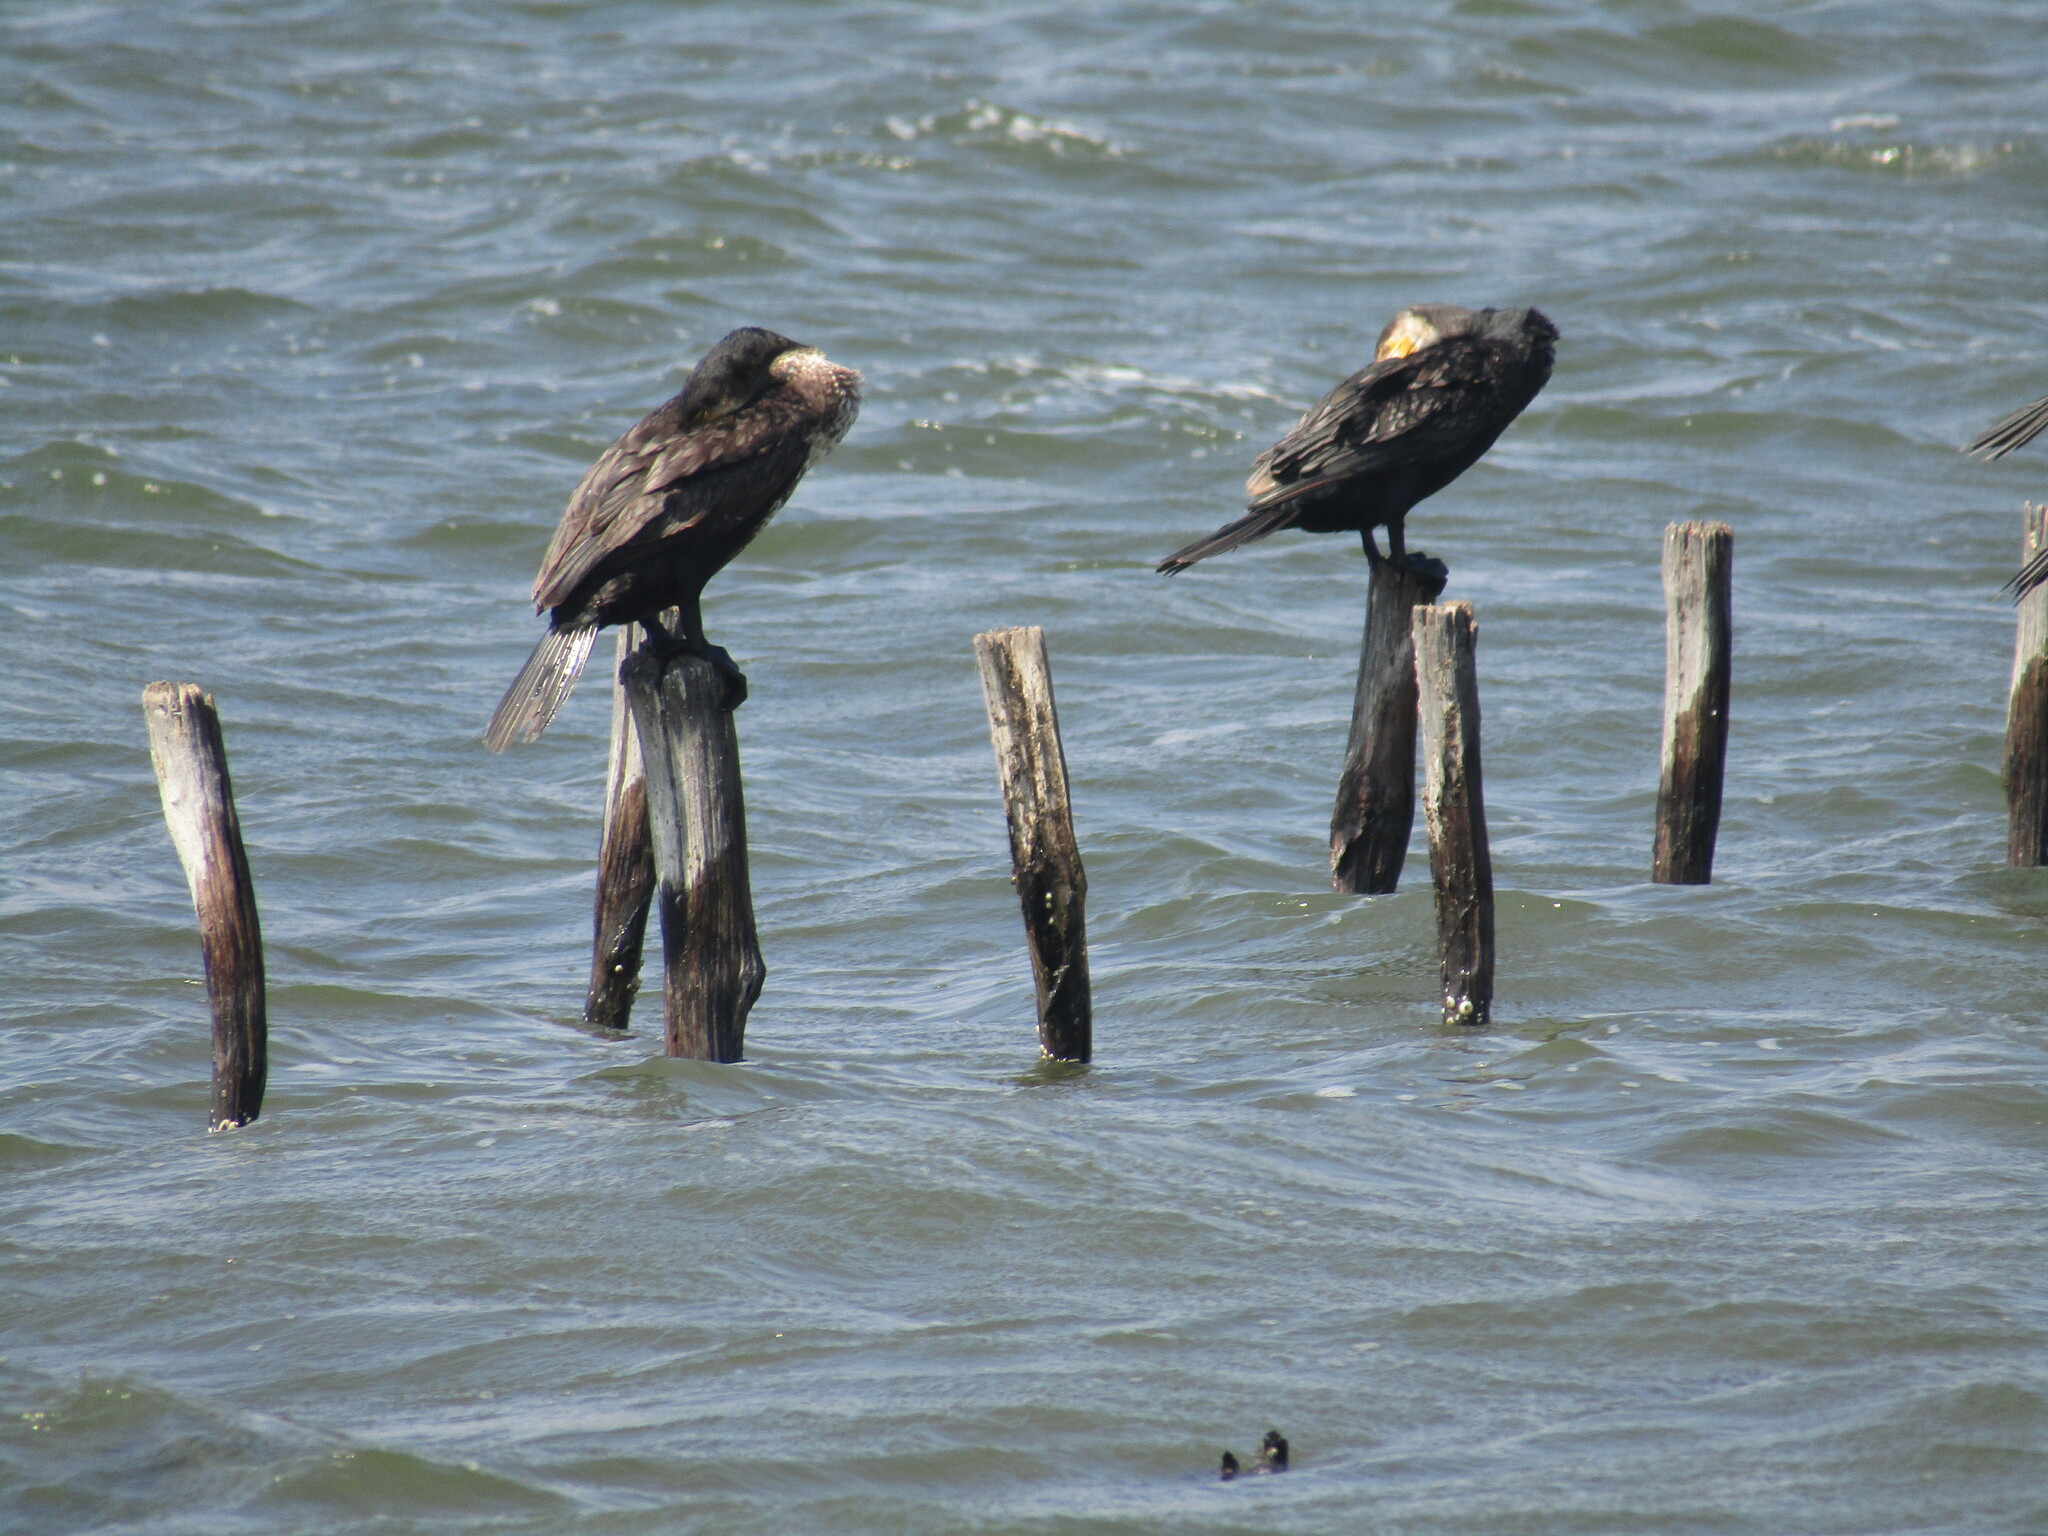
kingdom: Animalia
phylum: Chordata
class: Aves
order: Suliformes
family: Phalacrocoracidae
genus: Phalacrocorax
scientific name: Phalacrocorax carbo
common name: Great cormorant
